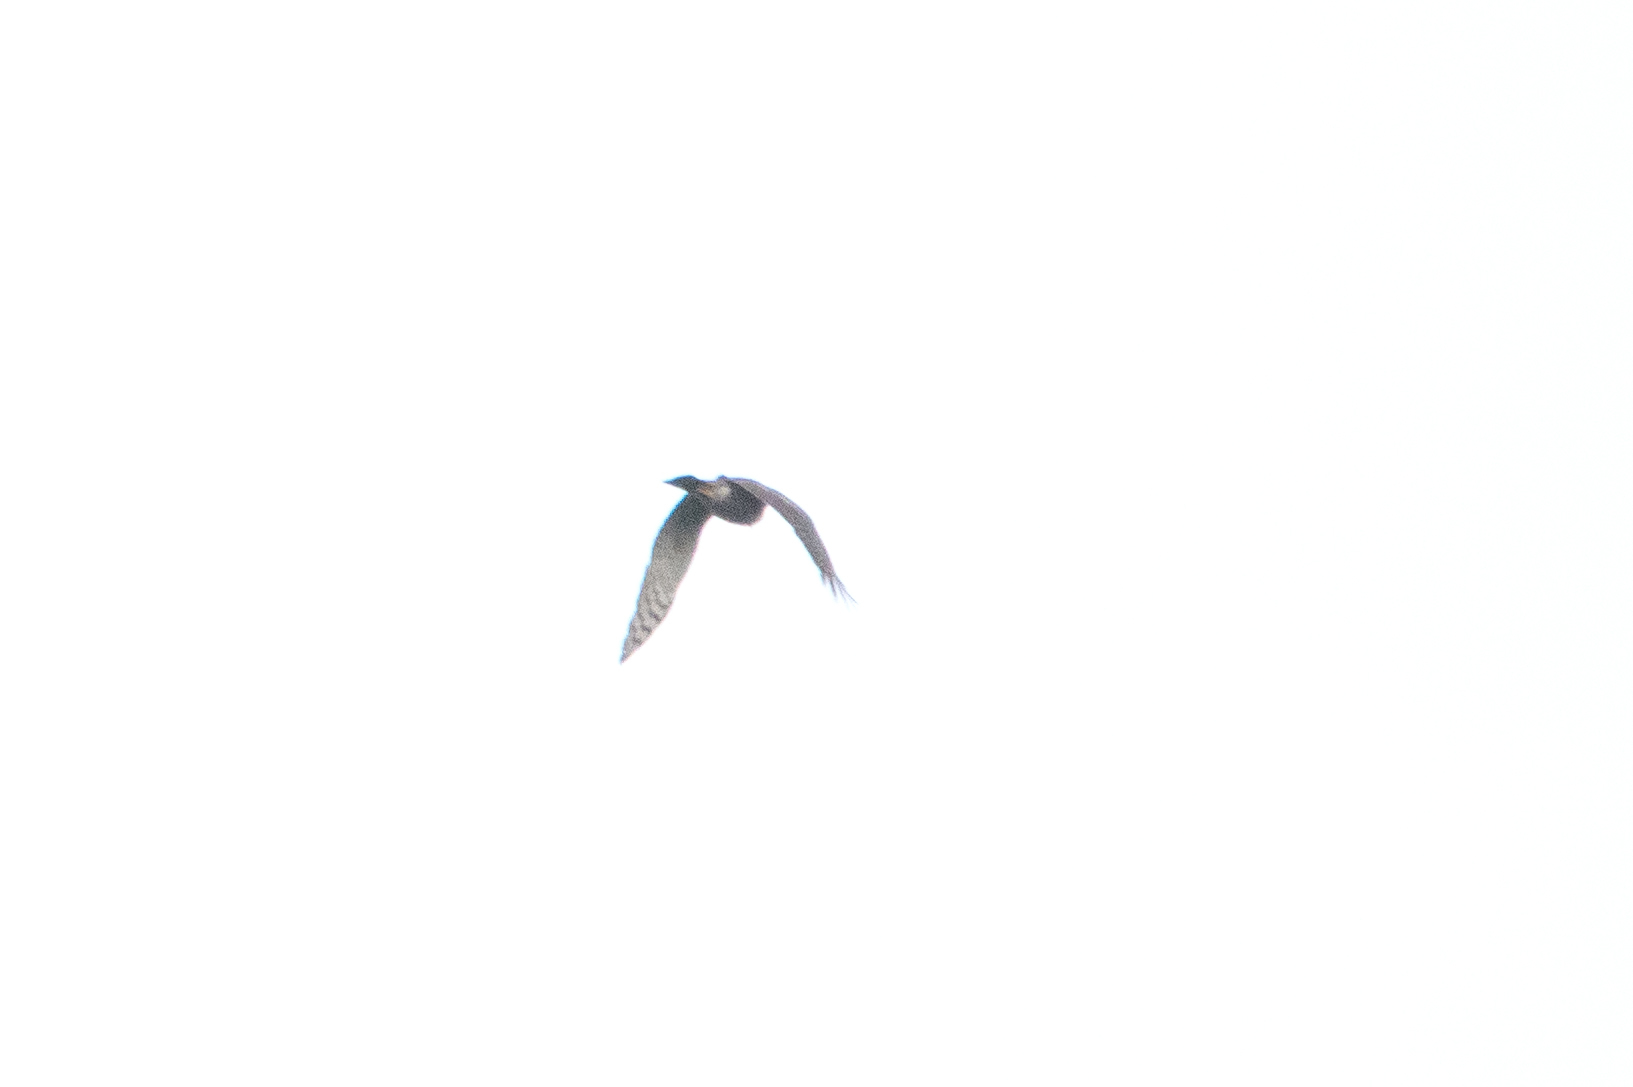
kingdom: Animalia
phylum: Chordata
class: Aves
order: Accipitriformes
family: Accipitridae
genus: Accipiter
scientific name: Accipiter nisus
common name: Eurasian sparrowhawk
